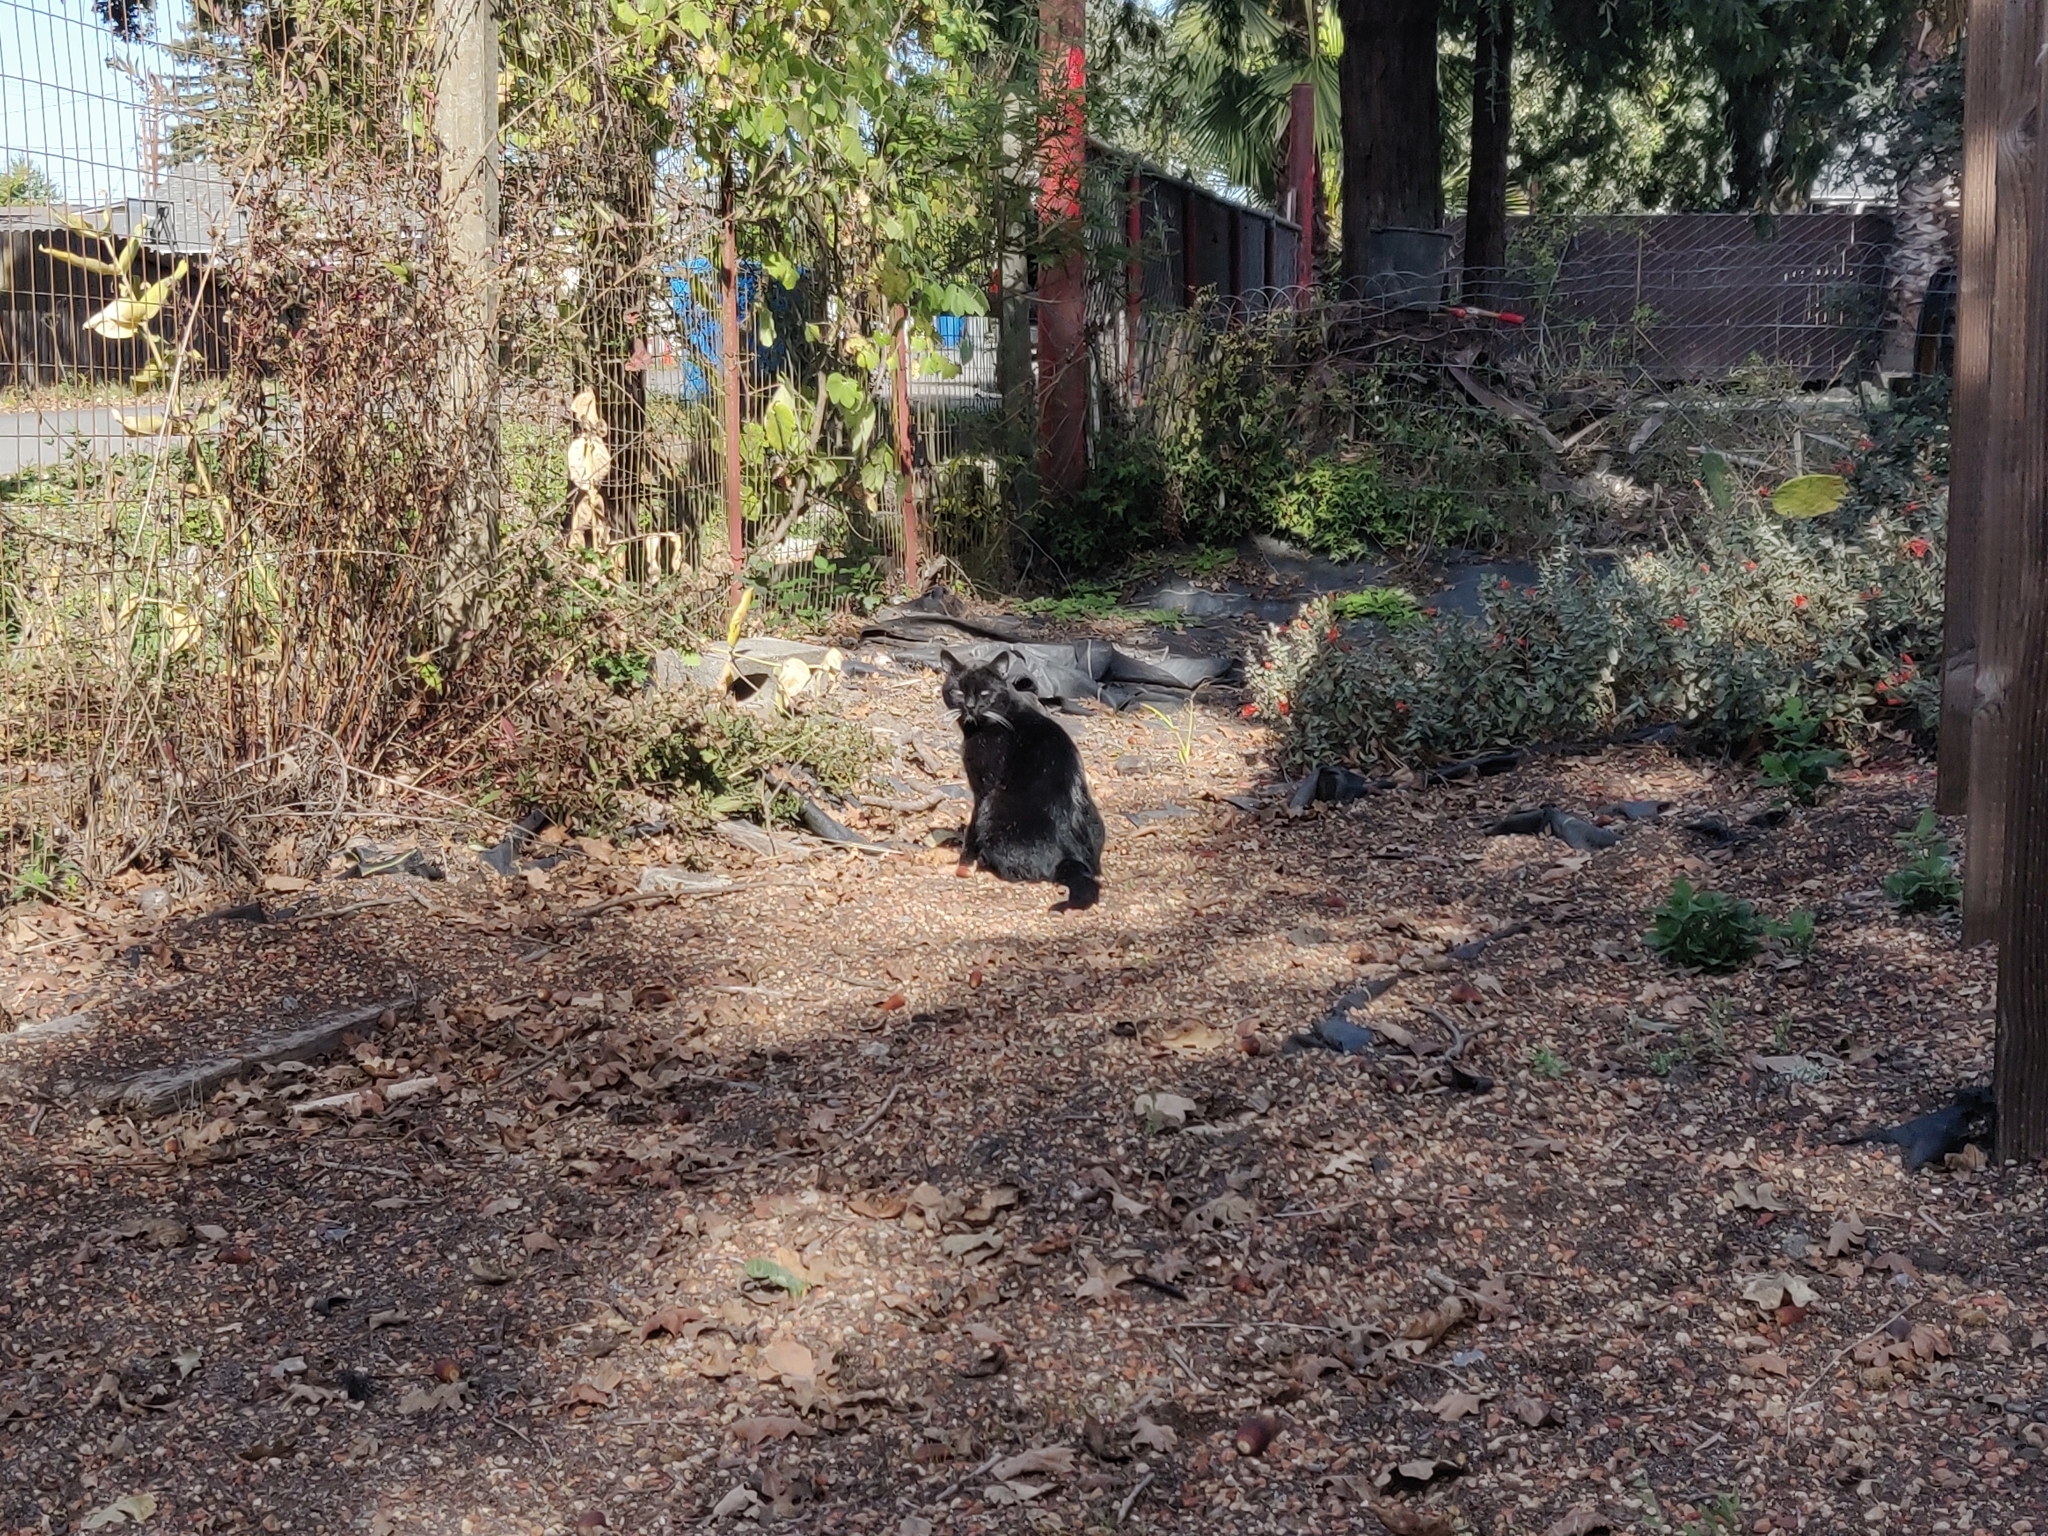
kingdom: Animalia
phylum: Chordata
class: Mammalia
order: Carnivora
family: Felidae
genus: Felis
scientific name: Felis catus
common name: Domestic cat
